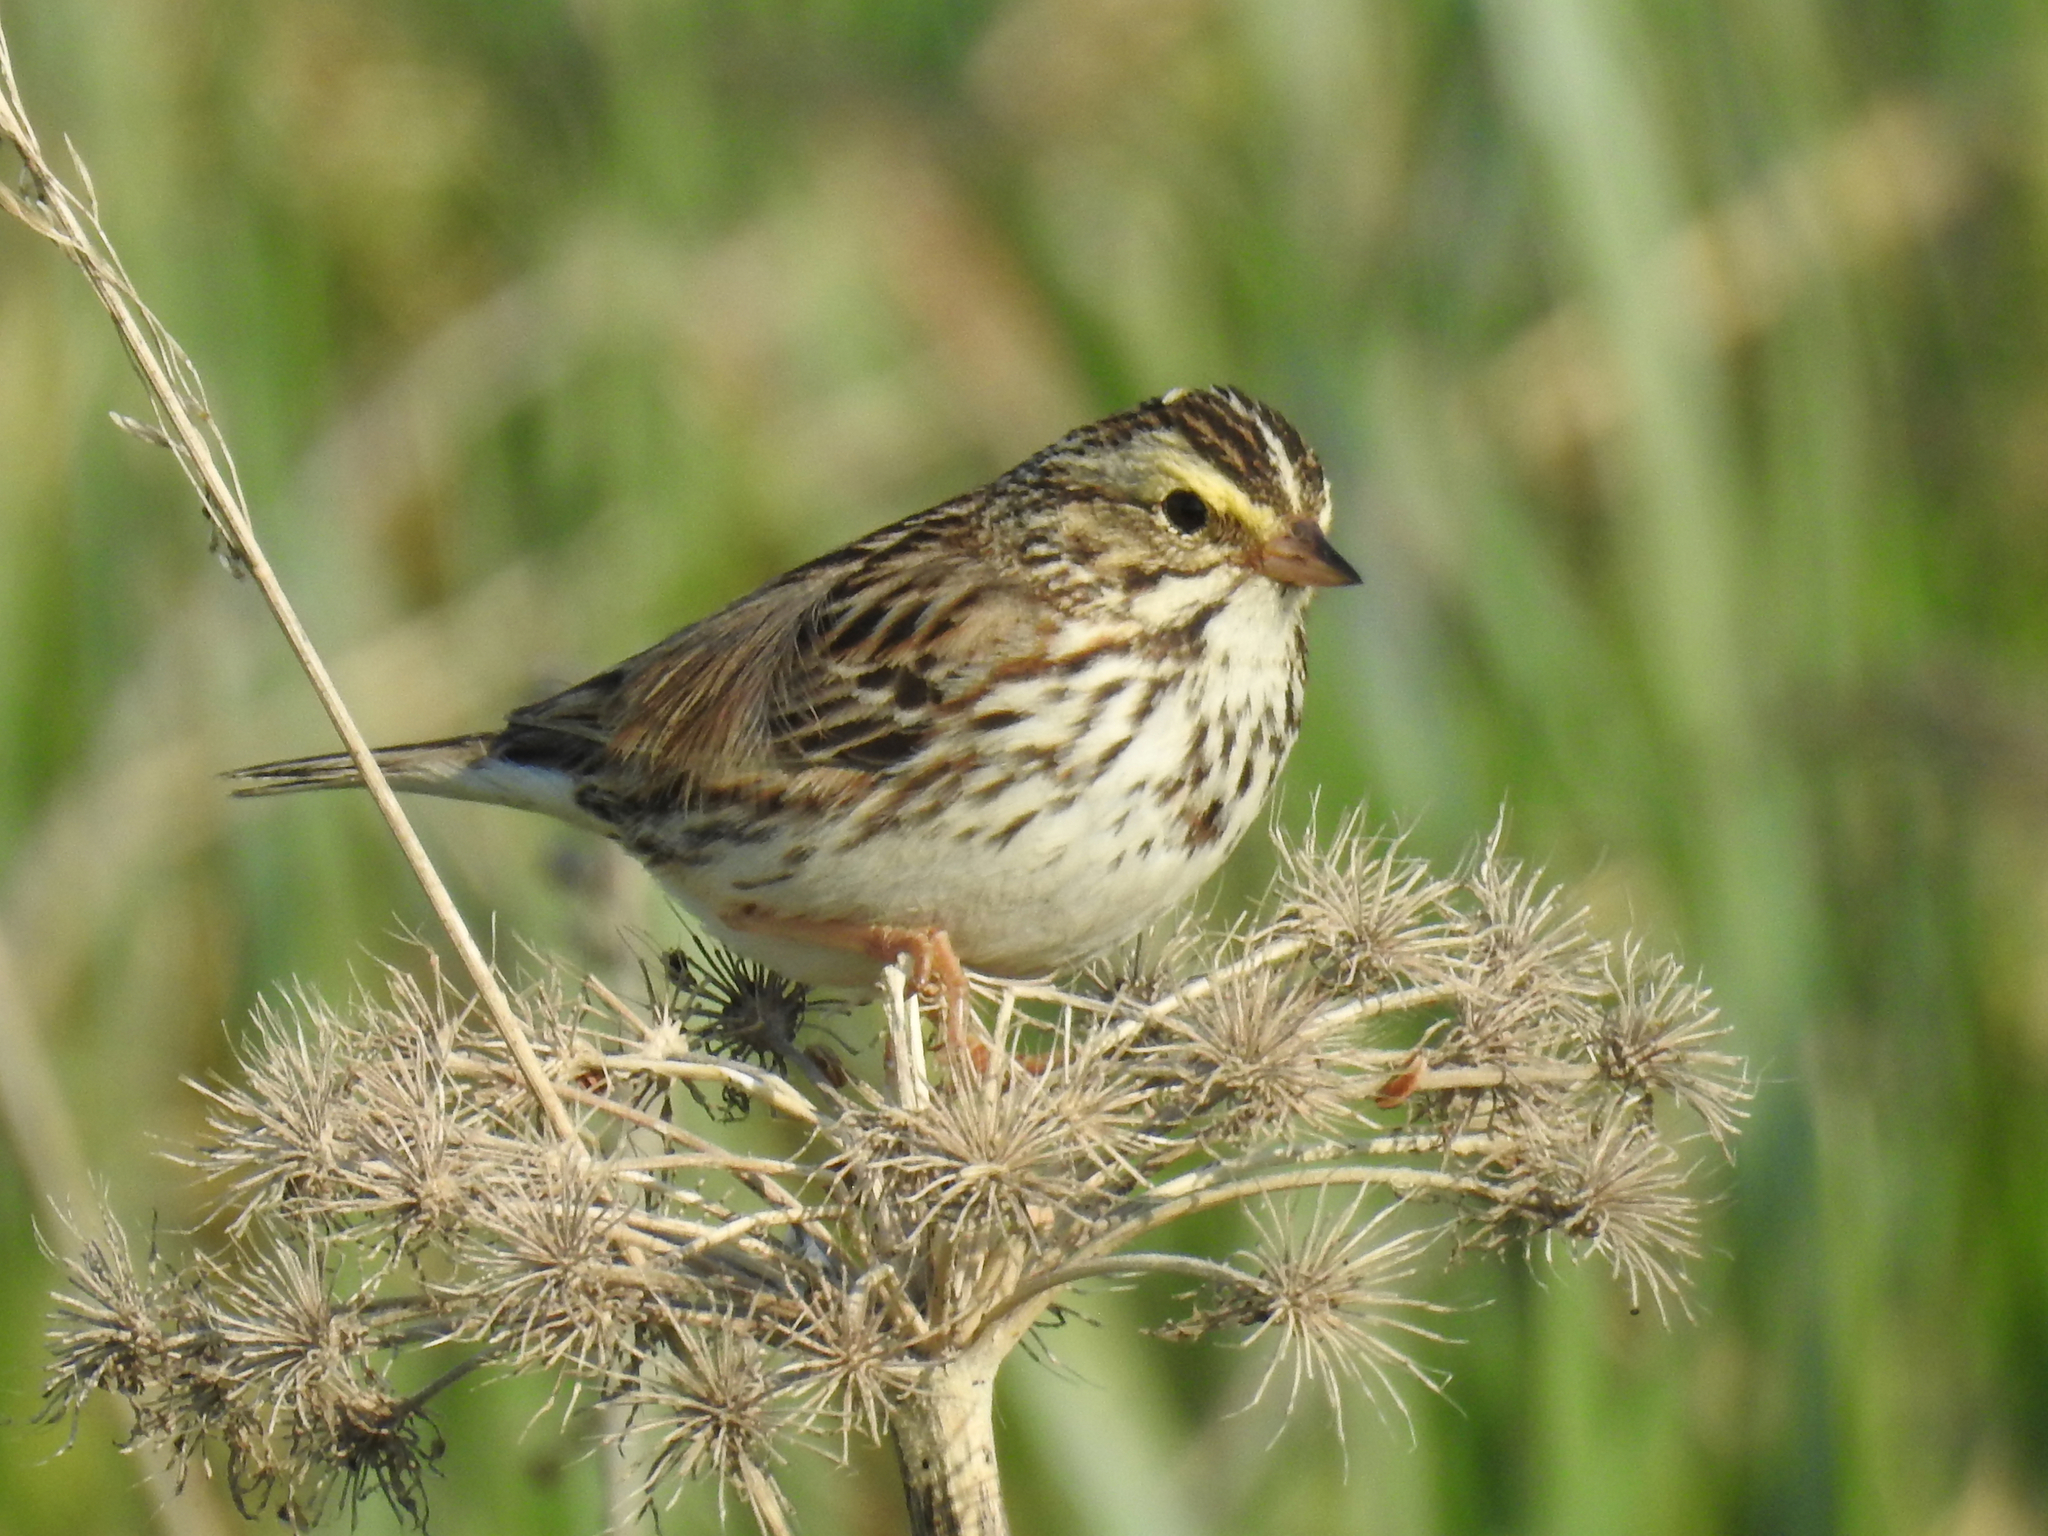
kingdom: Animalia
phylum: Chordata
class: Aves
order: Passeriformes
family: Passerellidae
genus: Passerculus
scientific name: Passerculus sandwichensis
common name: Savannah sparrow
